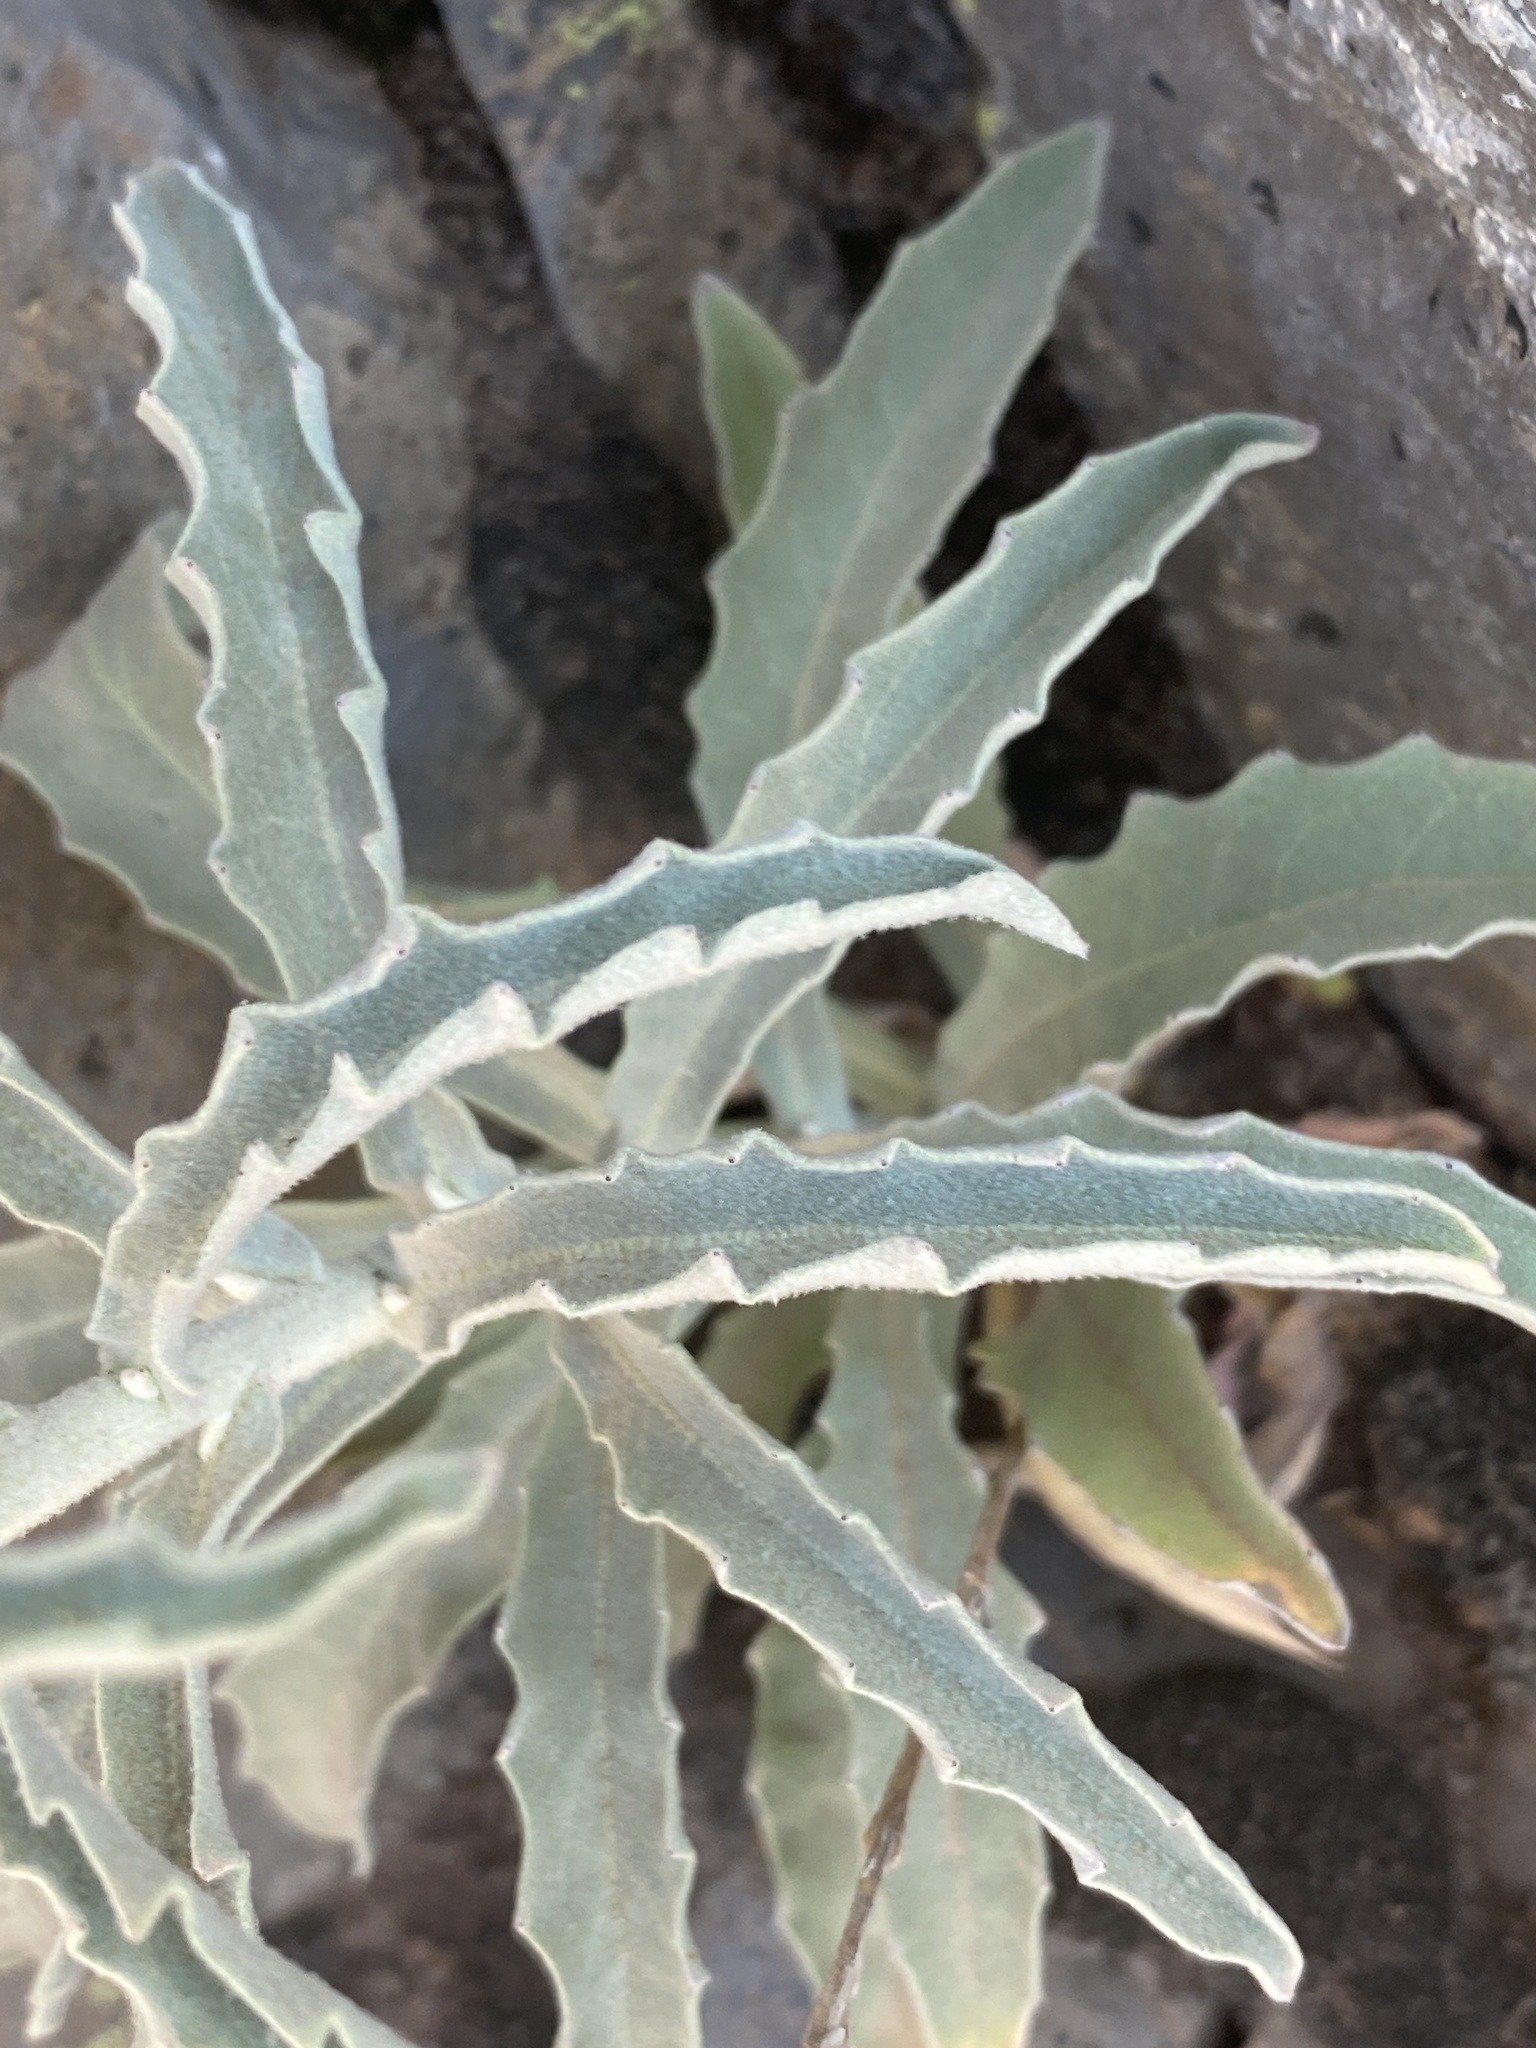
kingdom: Plantae
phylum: Tracheophyta
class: Magnoliopsida
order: Asterales
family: Asteraceae
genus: Andryala
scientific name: Andryala webbii
